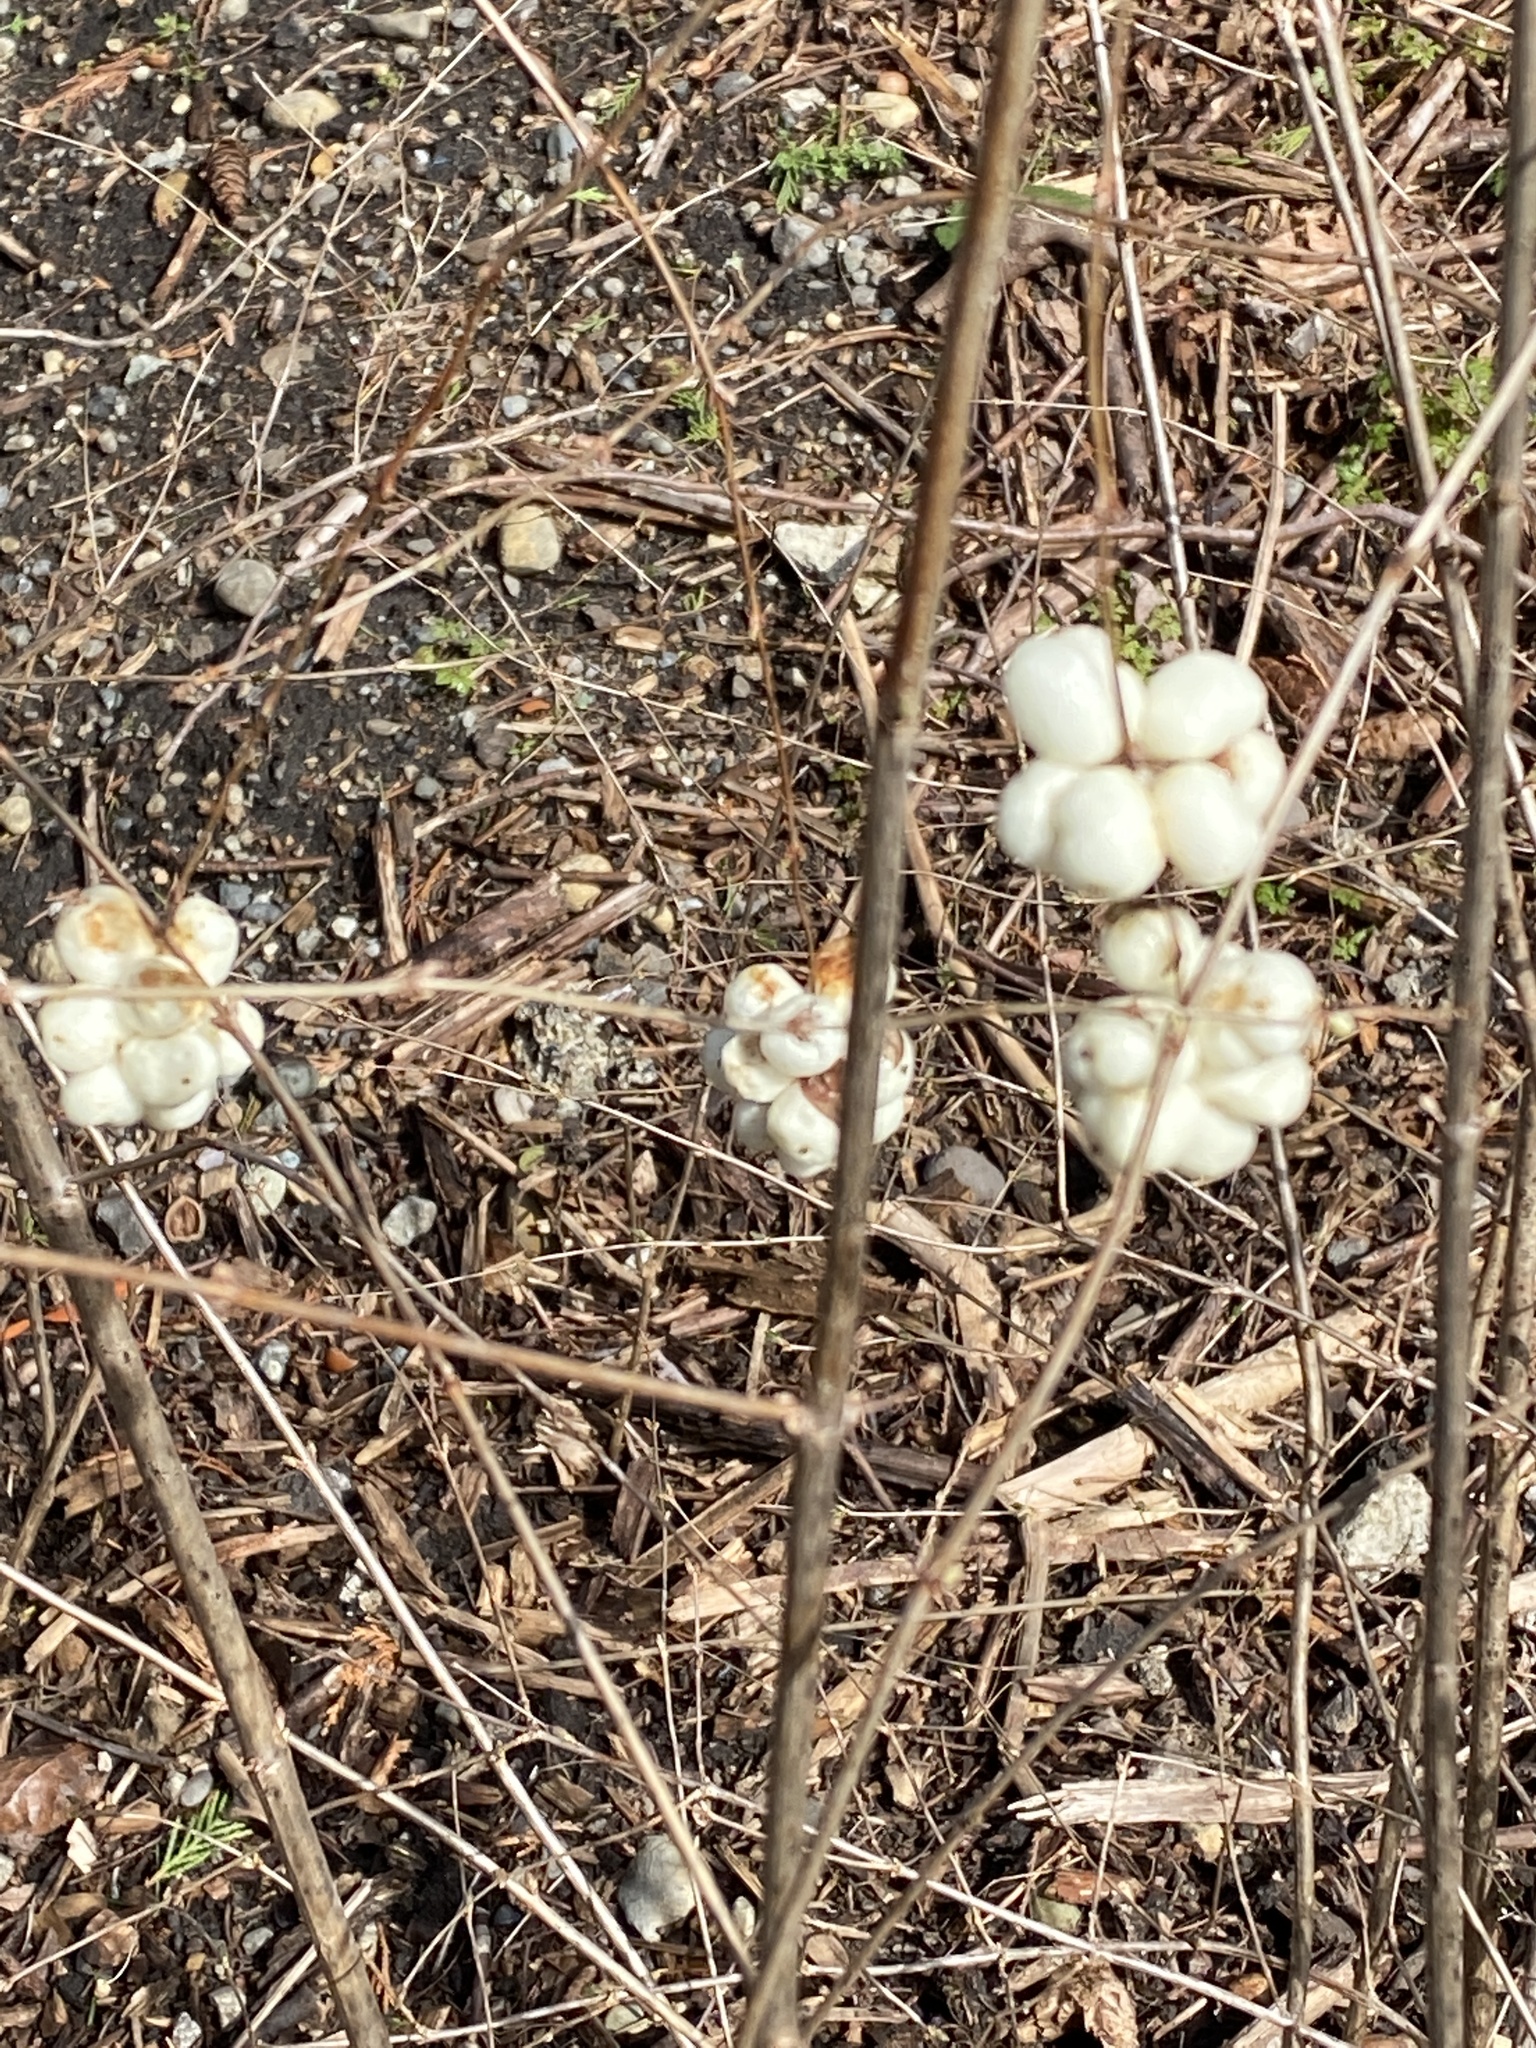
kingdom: Plantae
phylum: Tracheophyta
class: Magnoliopsida
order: Dipsacales
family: Caprifoliaceae
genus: Symphoricarpos
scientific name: Symphoricarpos albus
